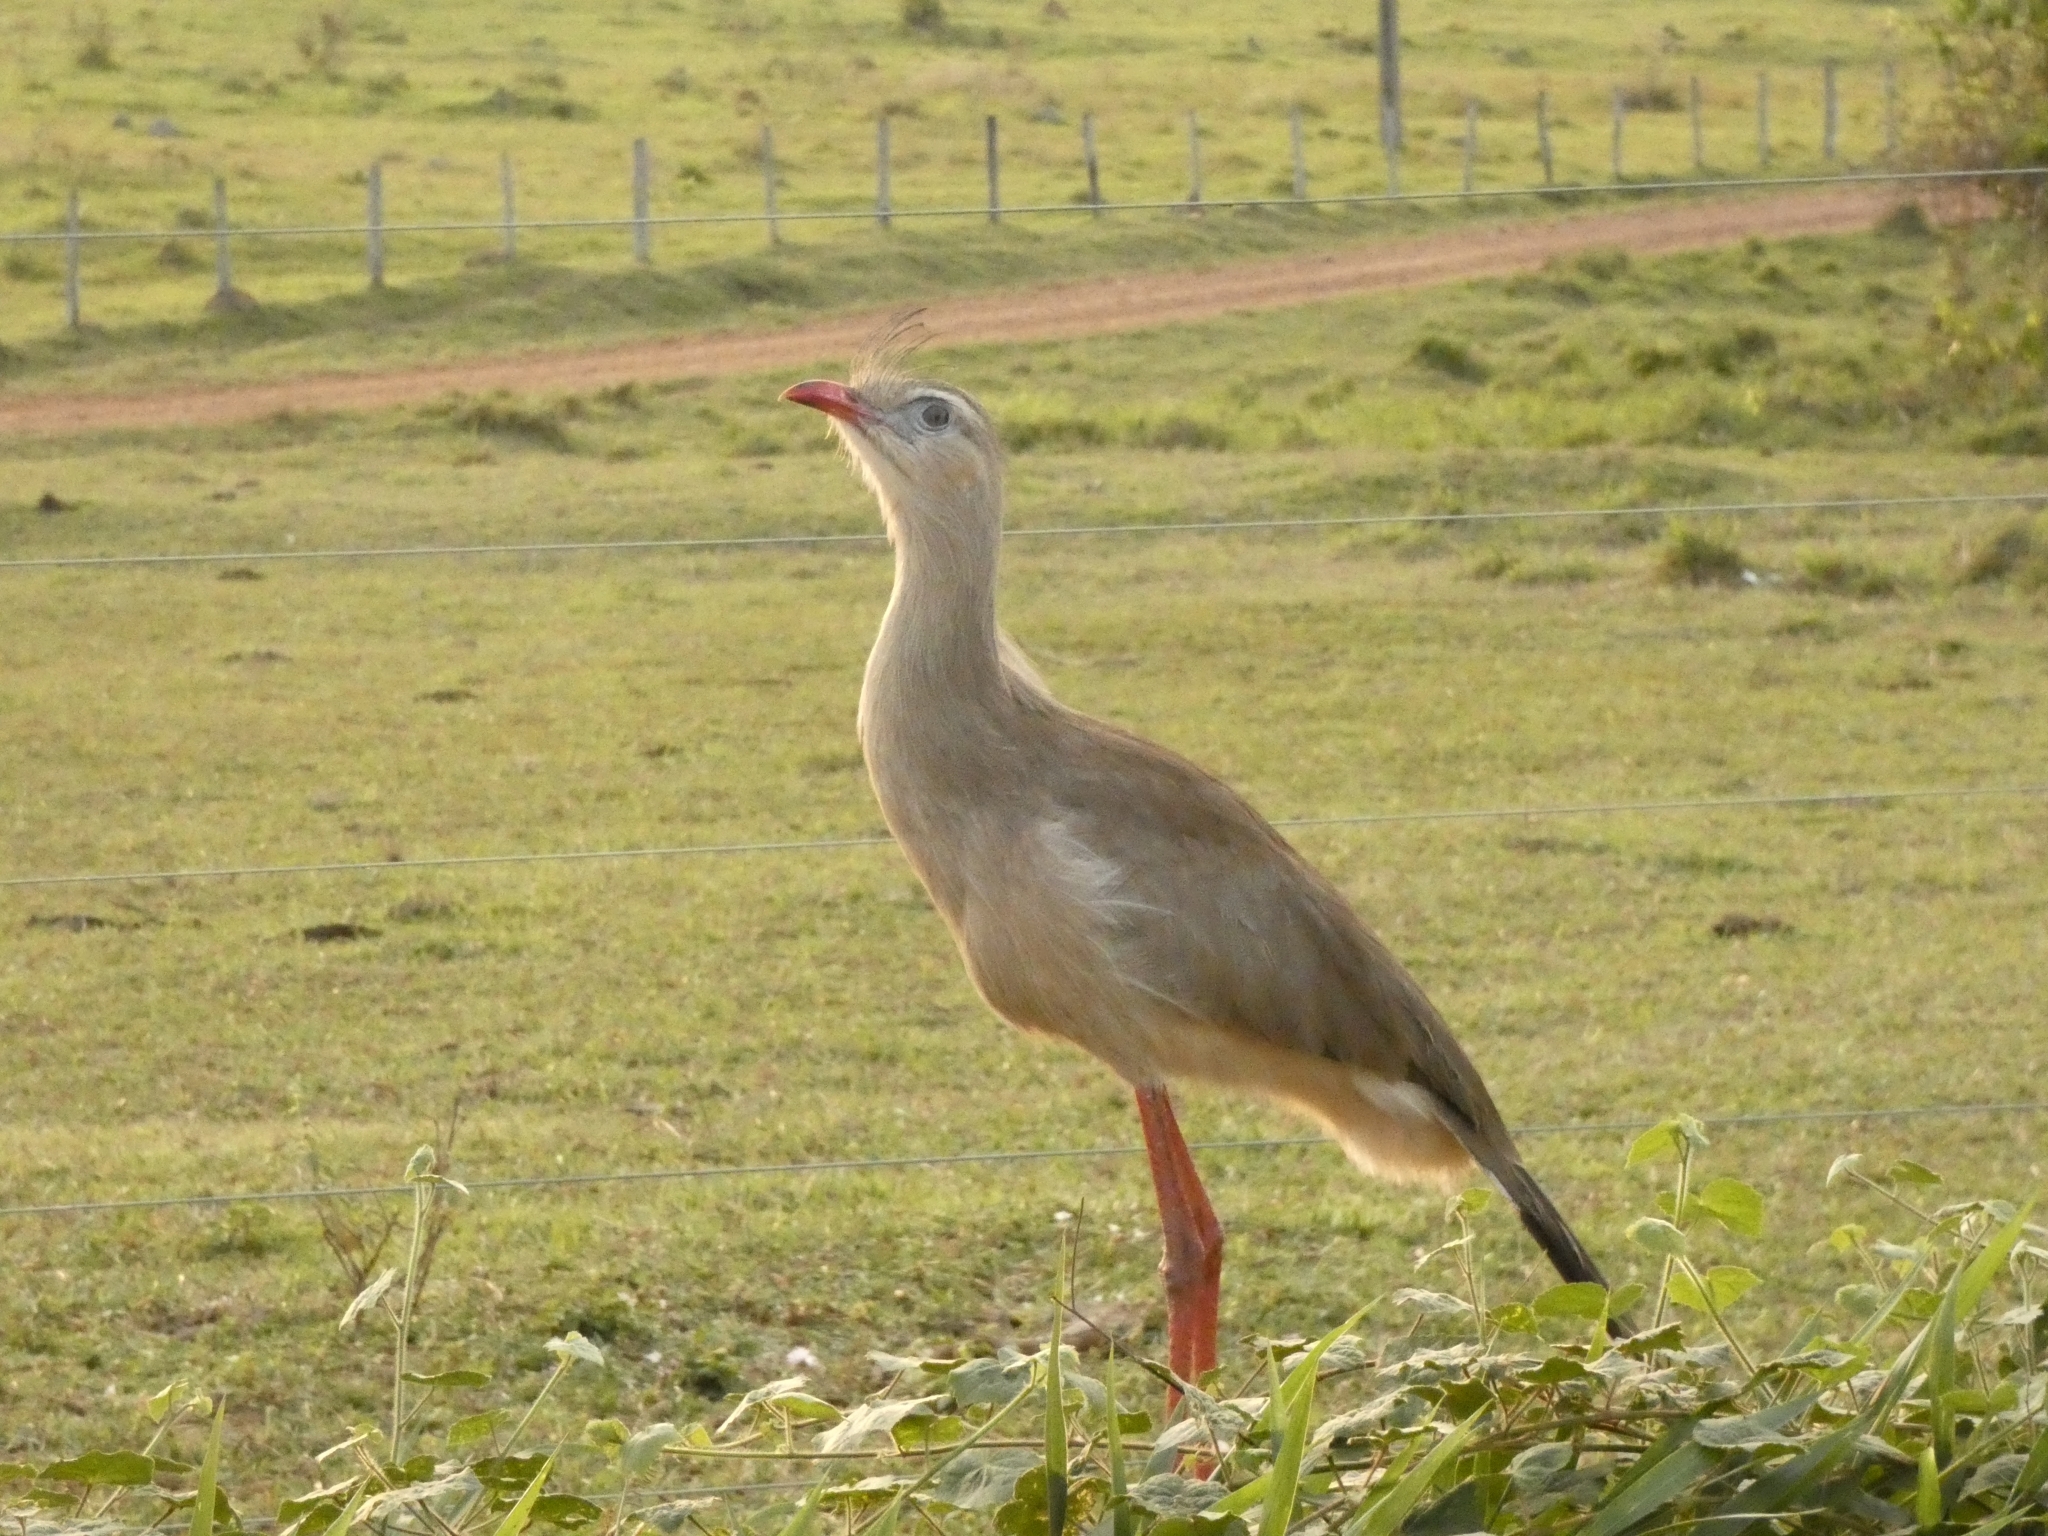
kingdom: Animalia
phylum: Chordata
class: Aves
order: Cariamiformes
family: Cariamidae
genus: Cariama
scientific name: Cariama cristata
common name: Red-legged seriema
